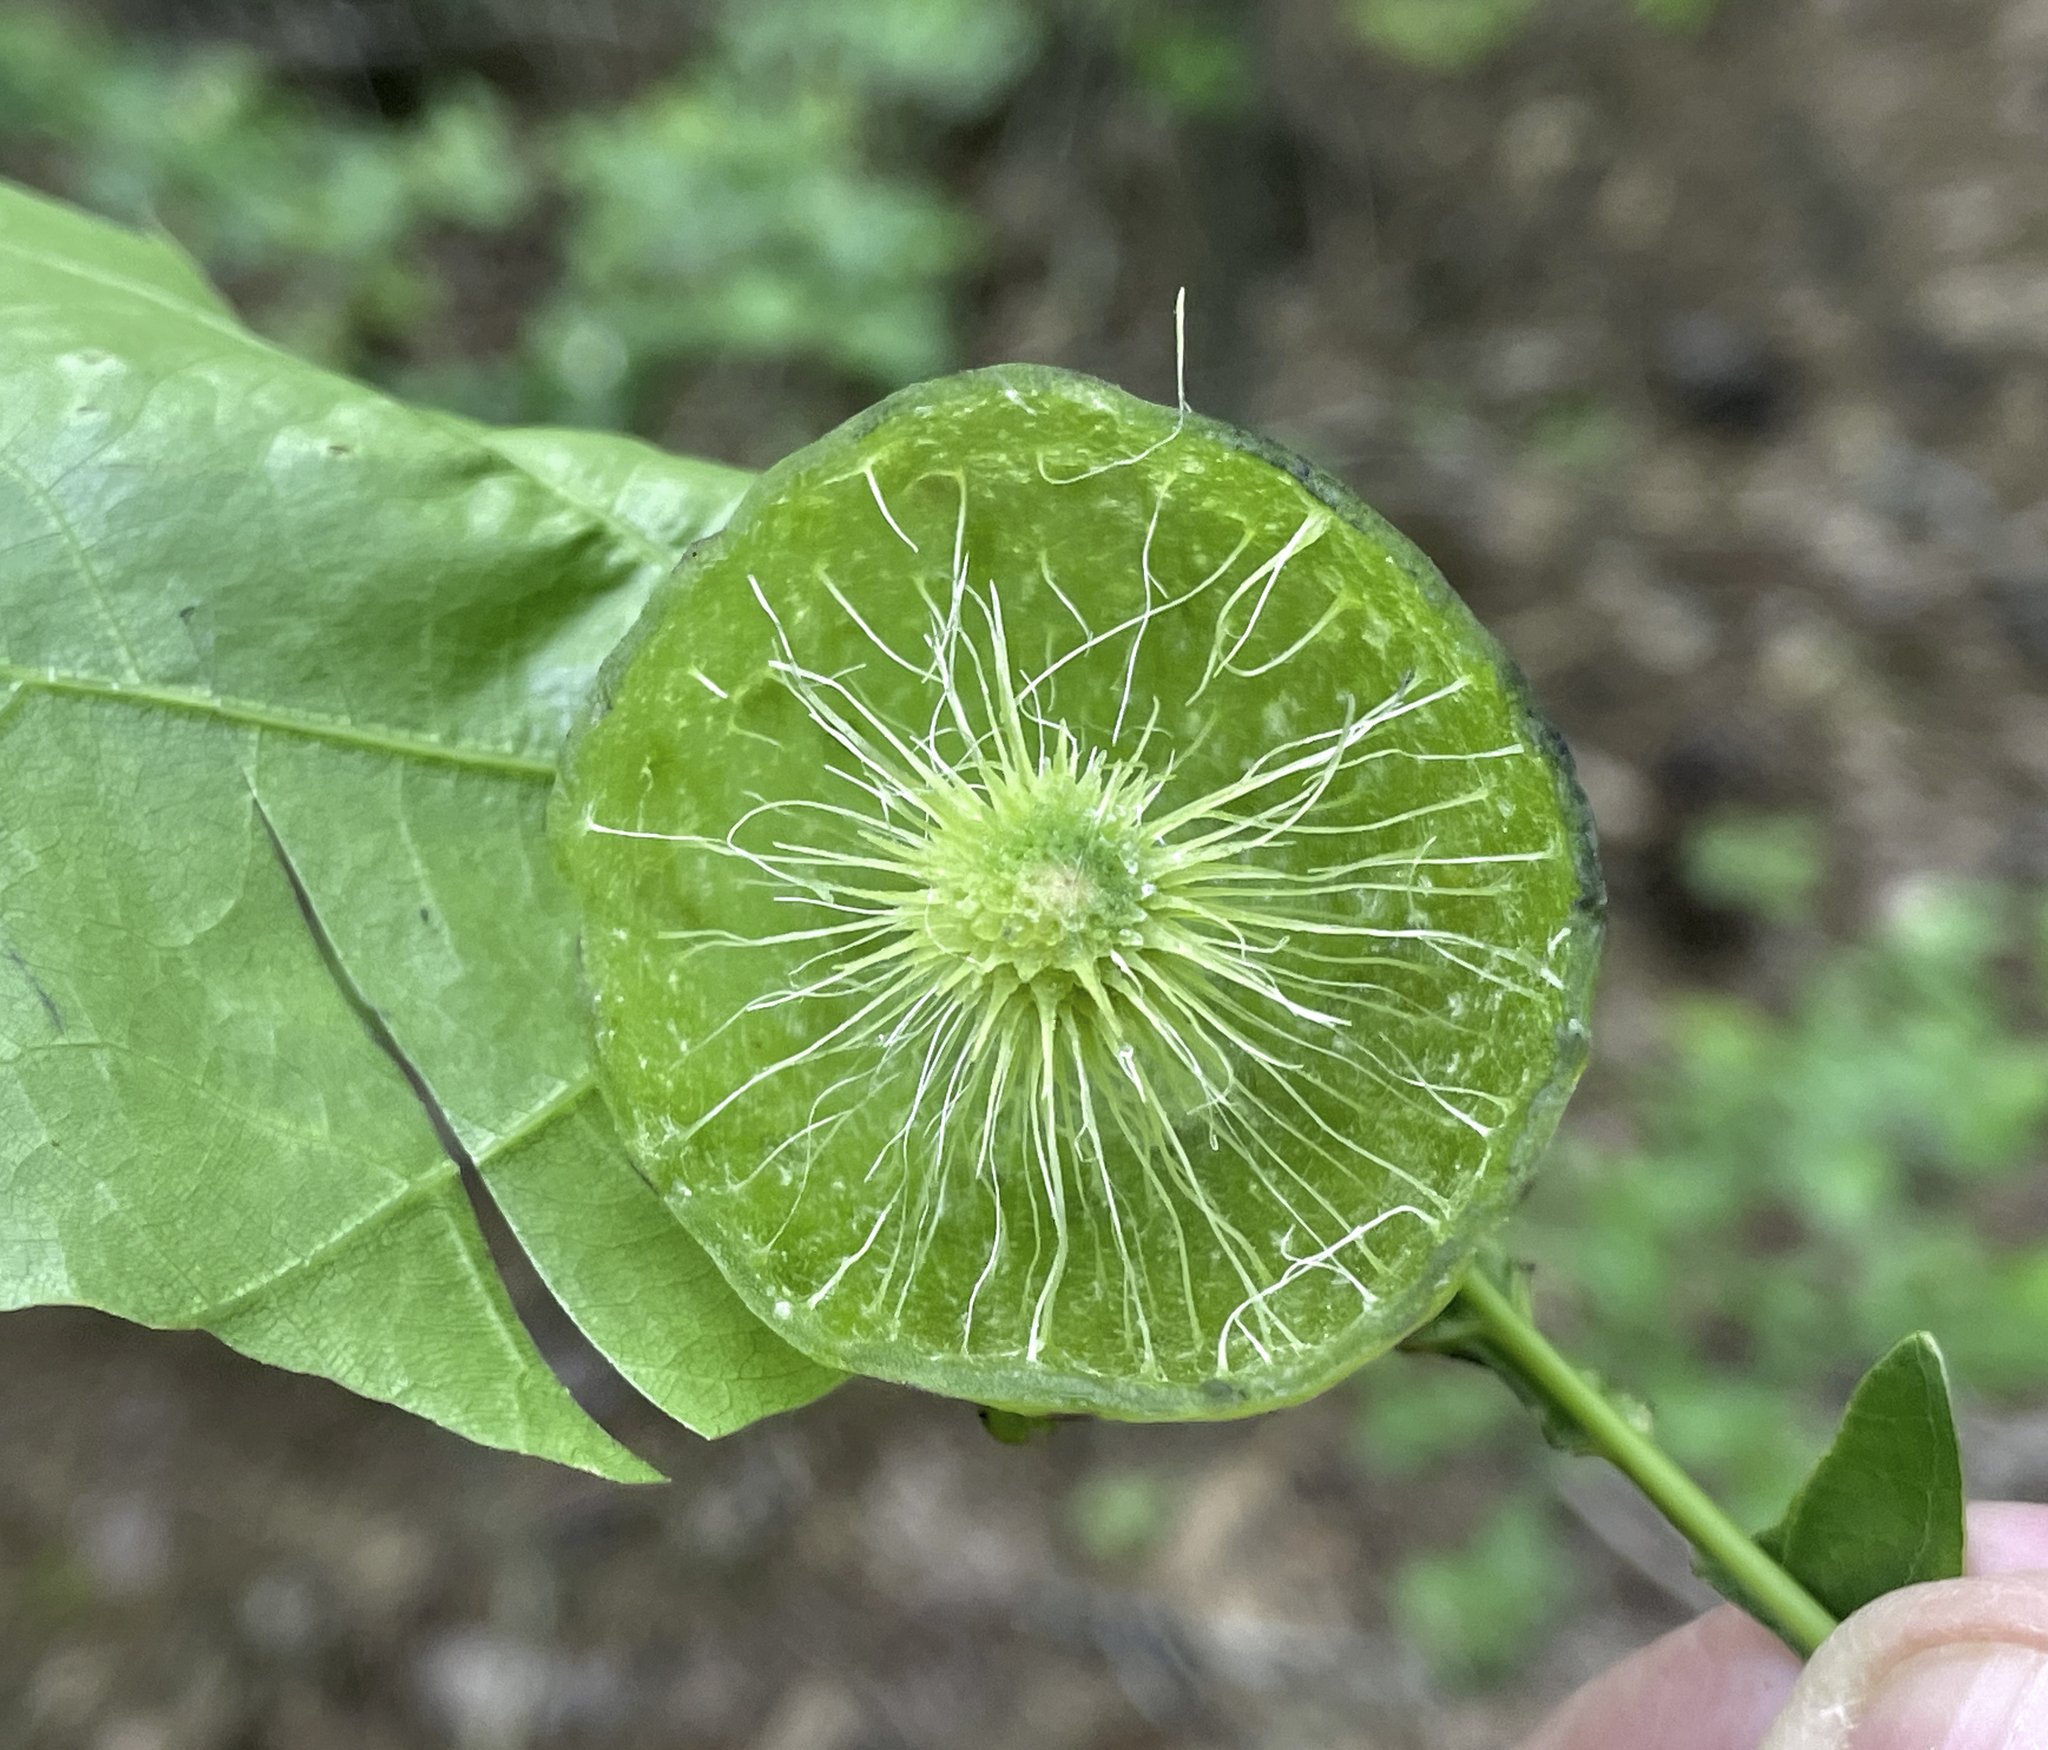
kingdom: Animalia
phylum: Arthropoda
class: Insecta
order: Hymenoptera
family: Cynipidae
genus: Amphibolips
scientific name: Amphibolips
